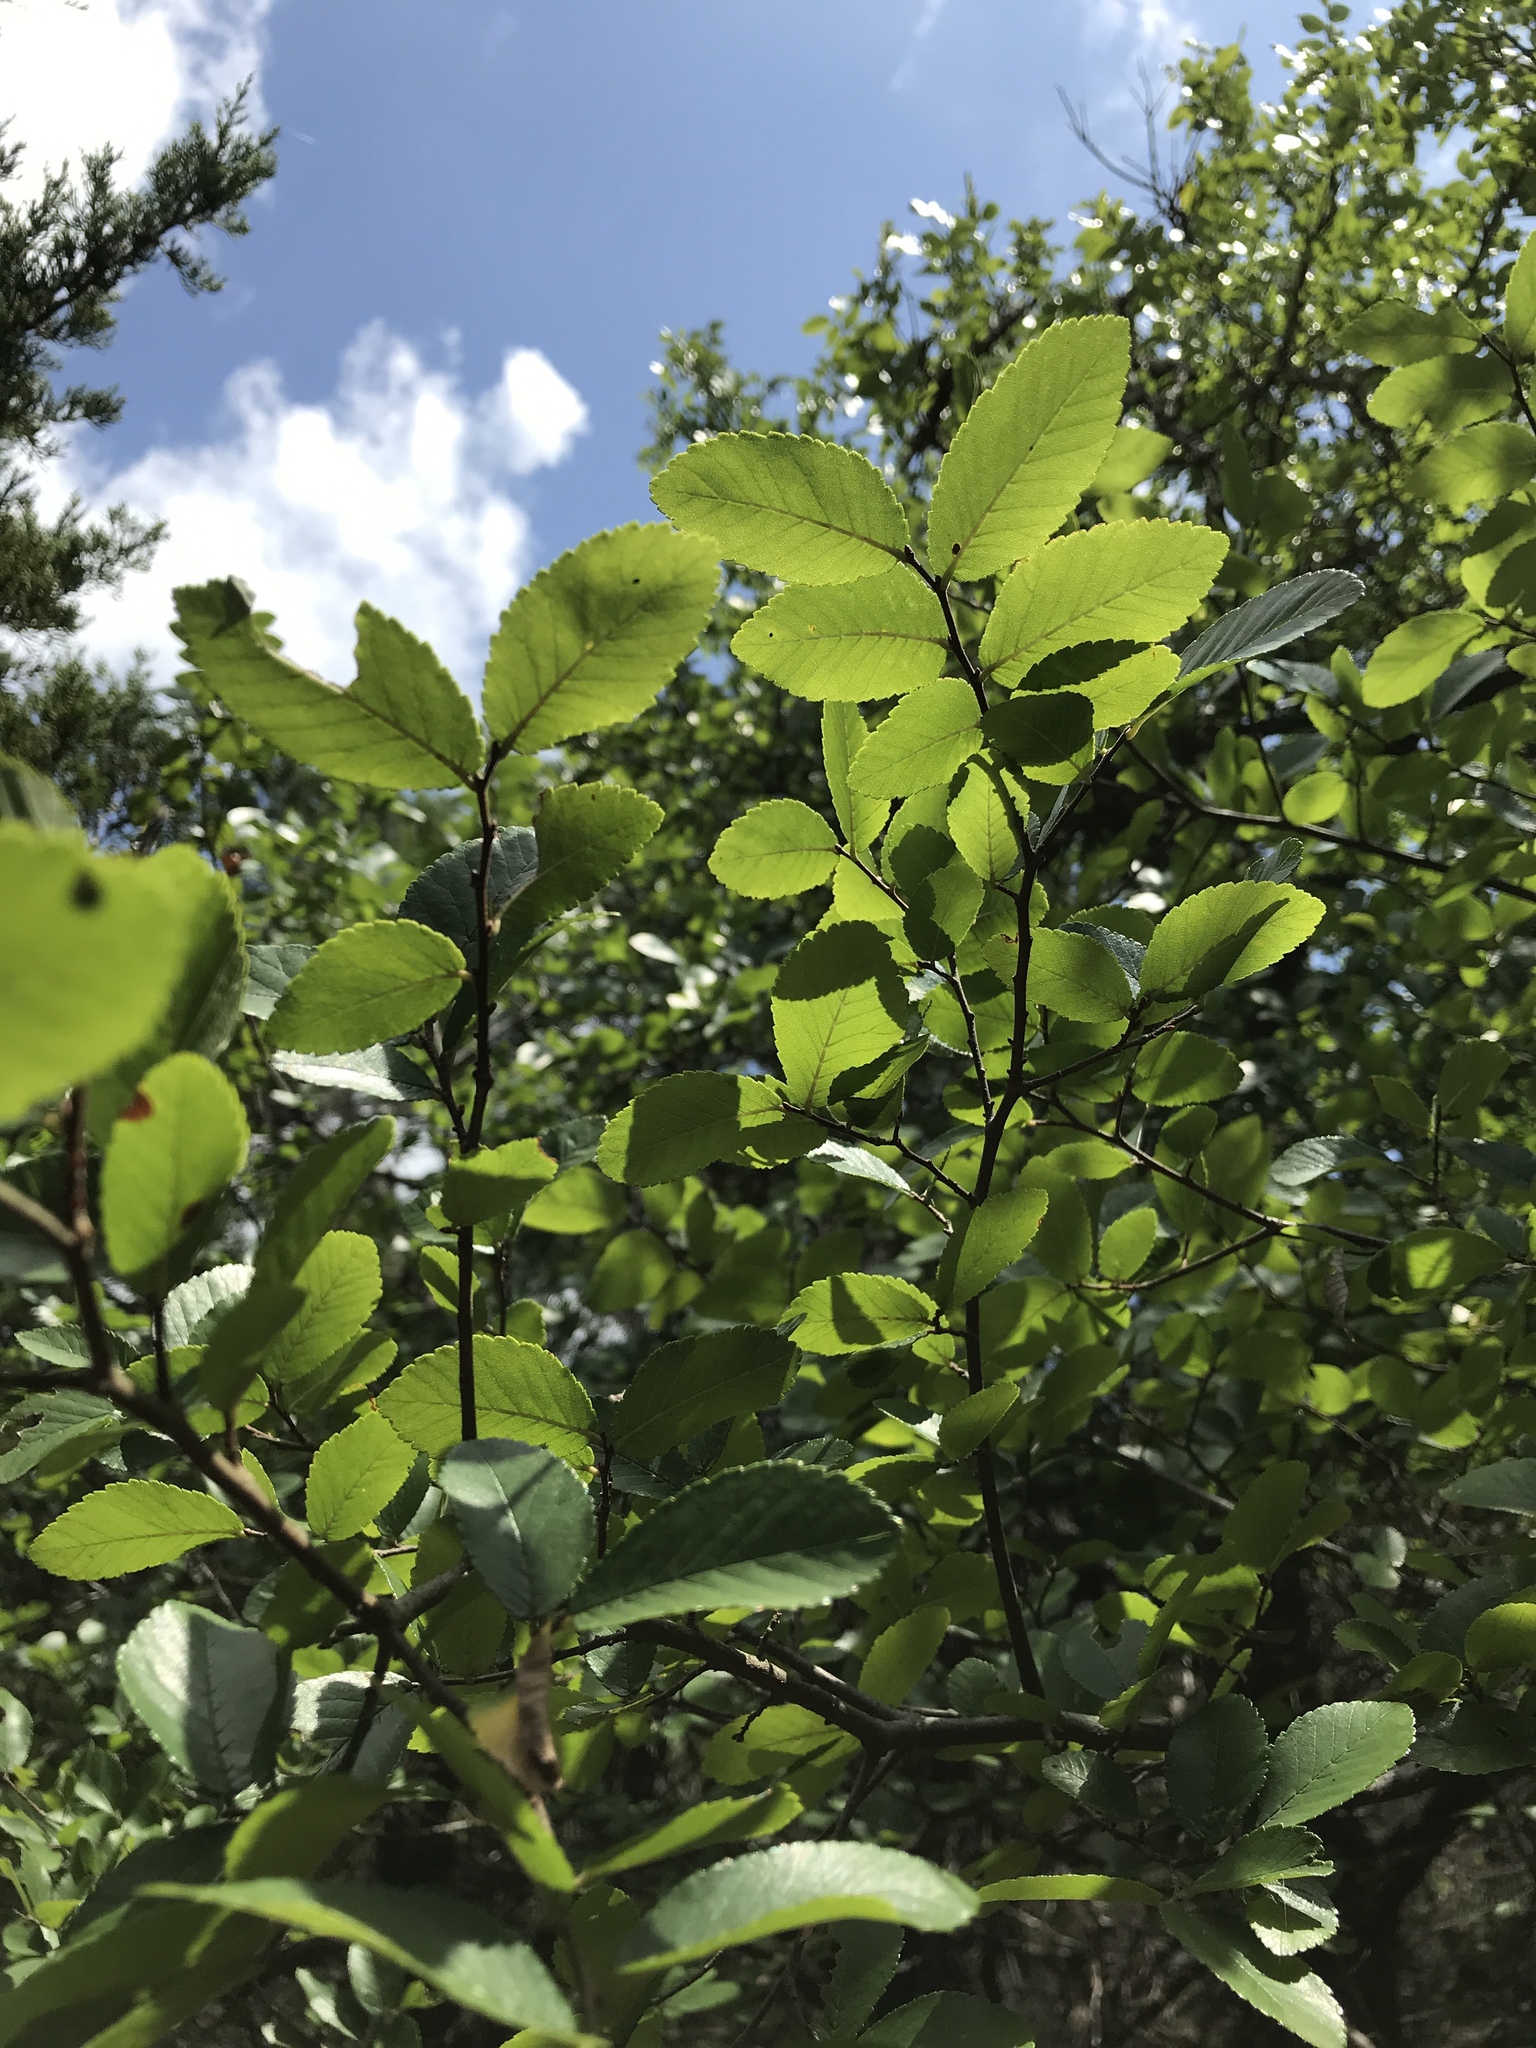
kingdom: Plantae
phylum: Tracheophyta
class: Magnoliopsida
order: Rosales
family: Ulmaceae
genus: Ulmus
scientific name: Ulmus crassifolia
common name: Basket elm
